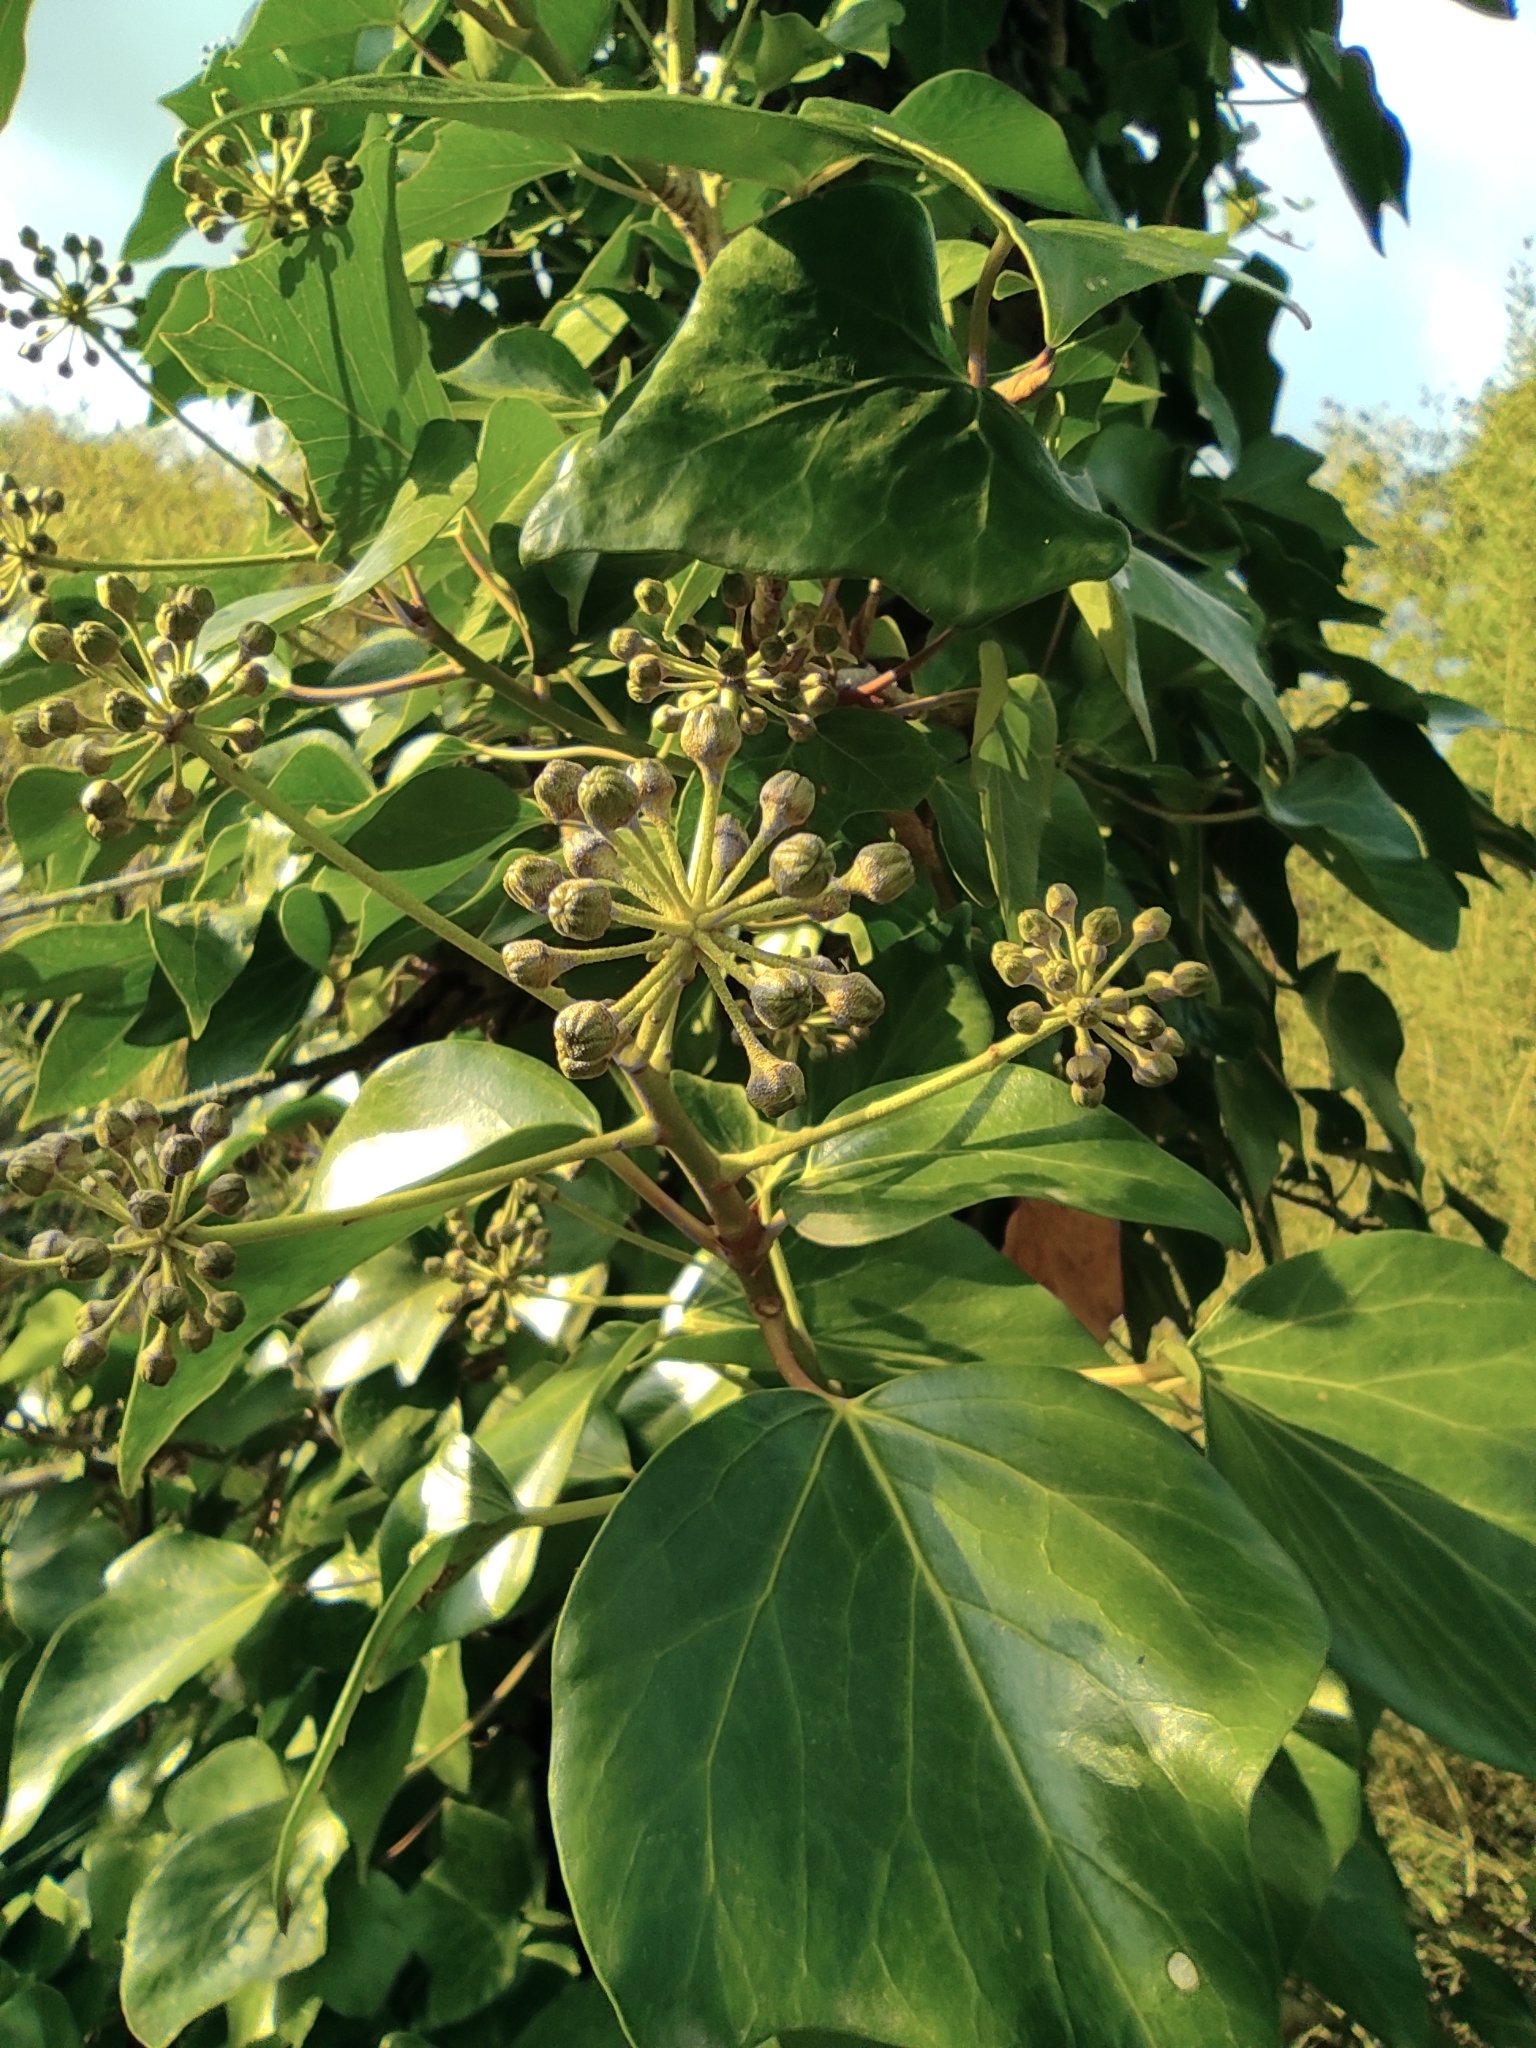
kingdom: Plantae
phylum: Tracheophyta
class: Magnoliopsida
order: Apiales
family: Araliaceae
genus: Hedera
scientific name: Hedera helix
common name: Ivy
